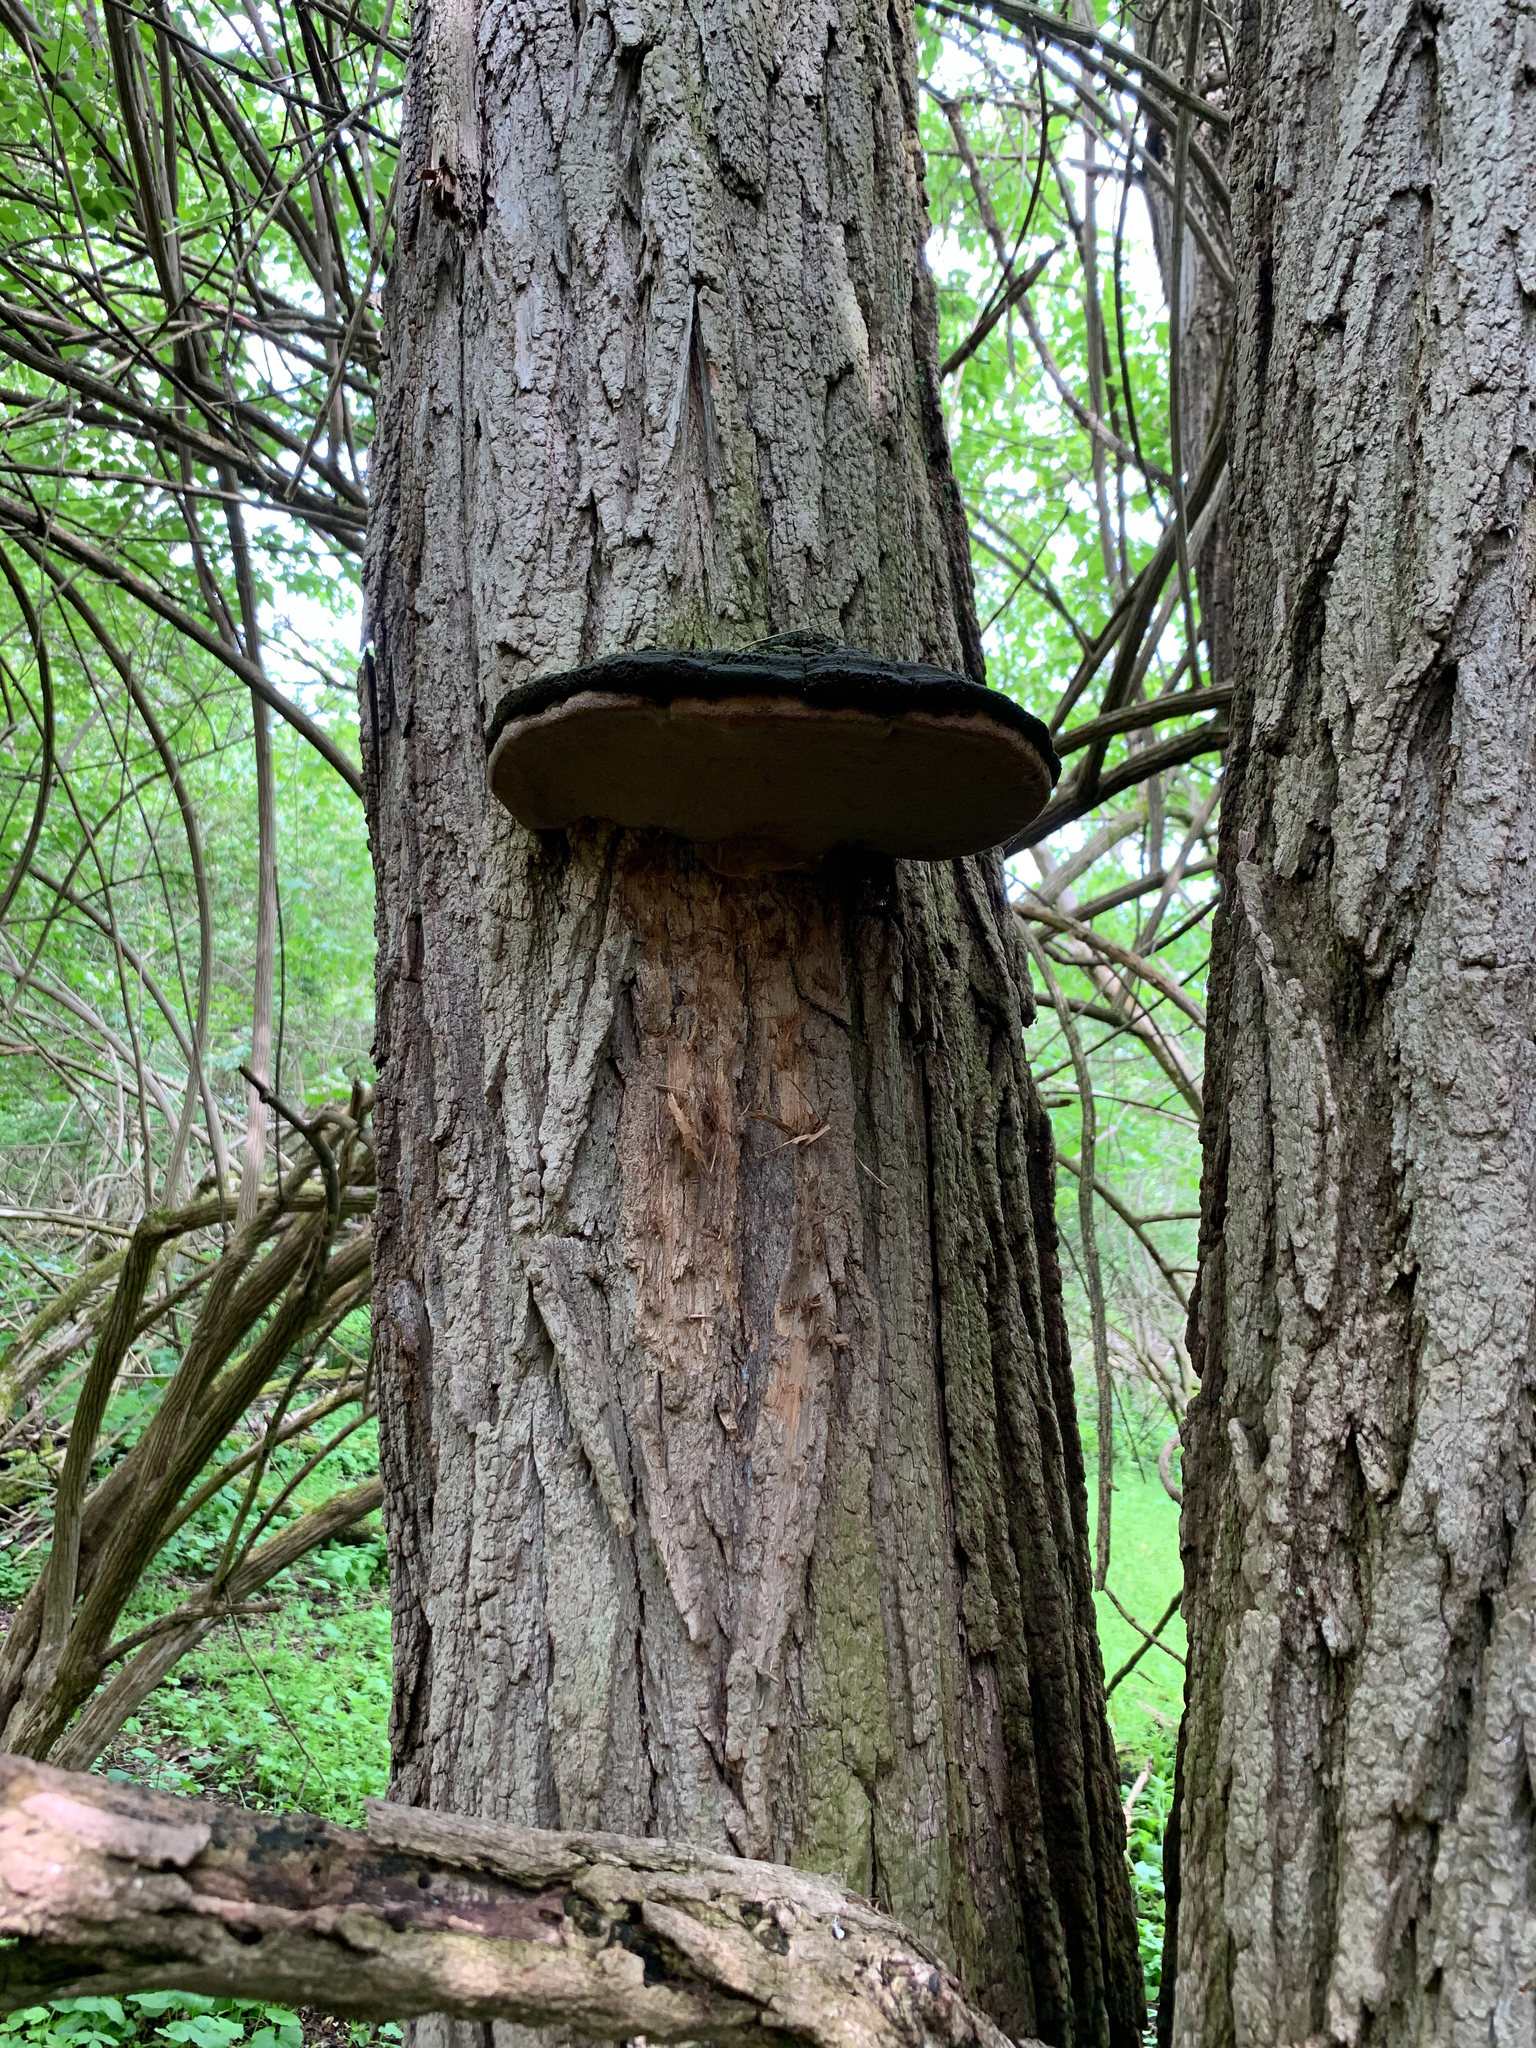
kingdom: Fungi
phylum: Basidiomycota
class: Agaricomycetes
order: Hymenochaetales
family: Hymenochaetaceae
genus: Phellinus
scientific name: Phellinus robiniae
